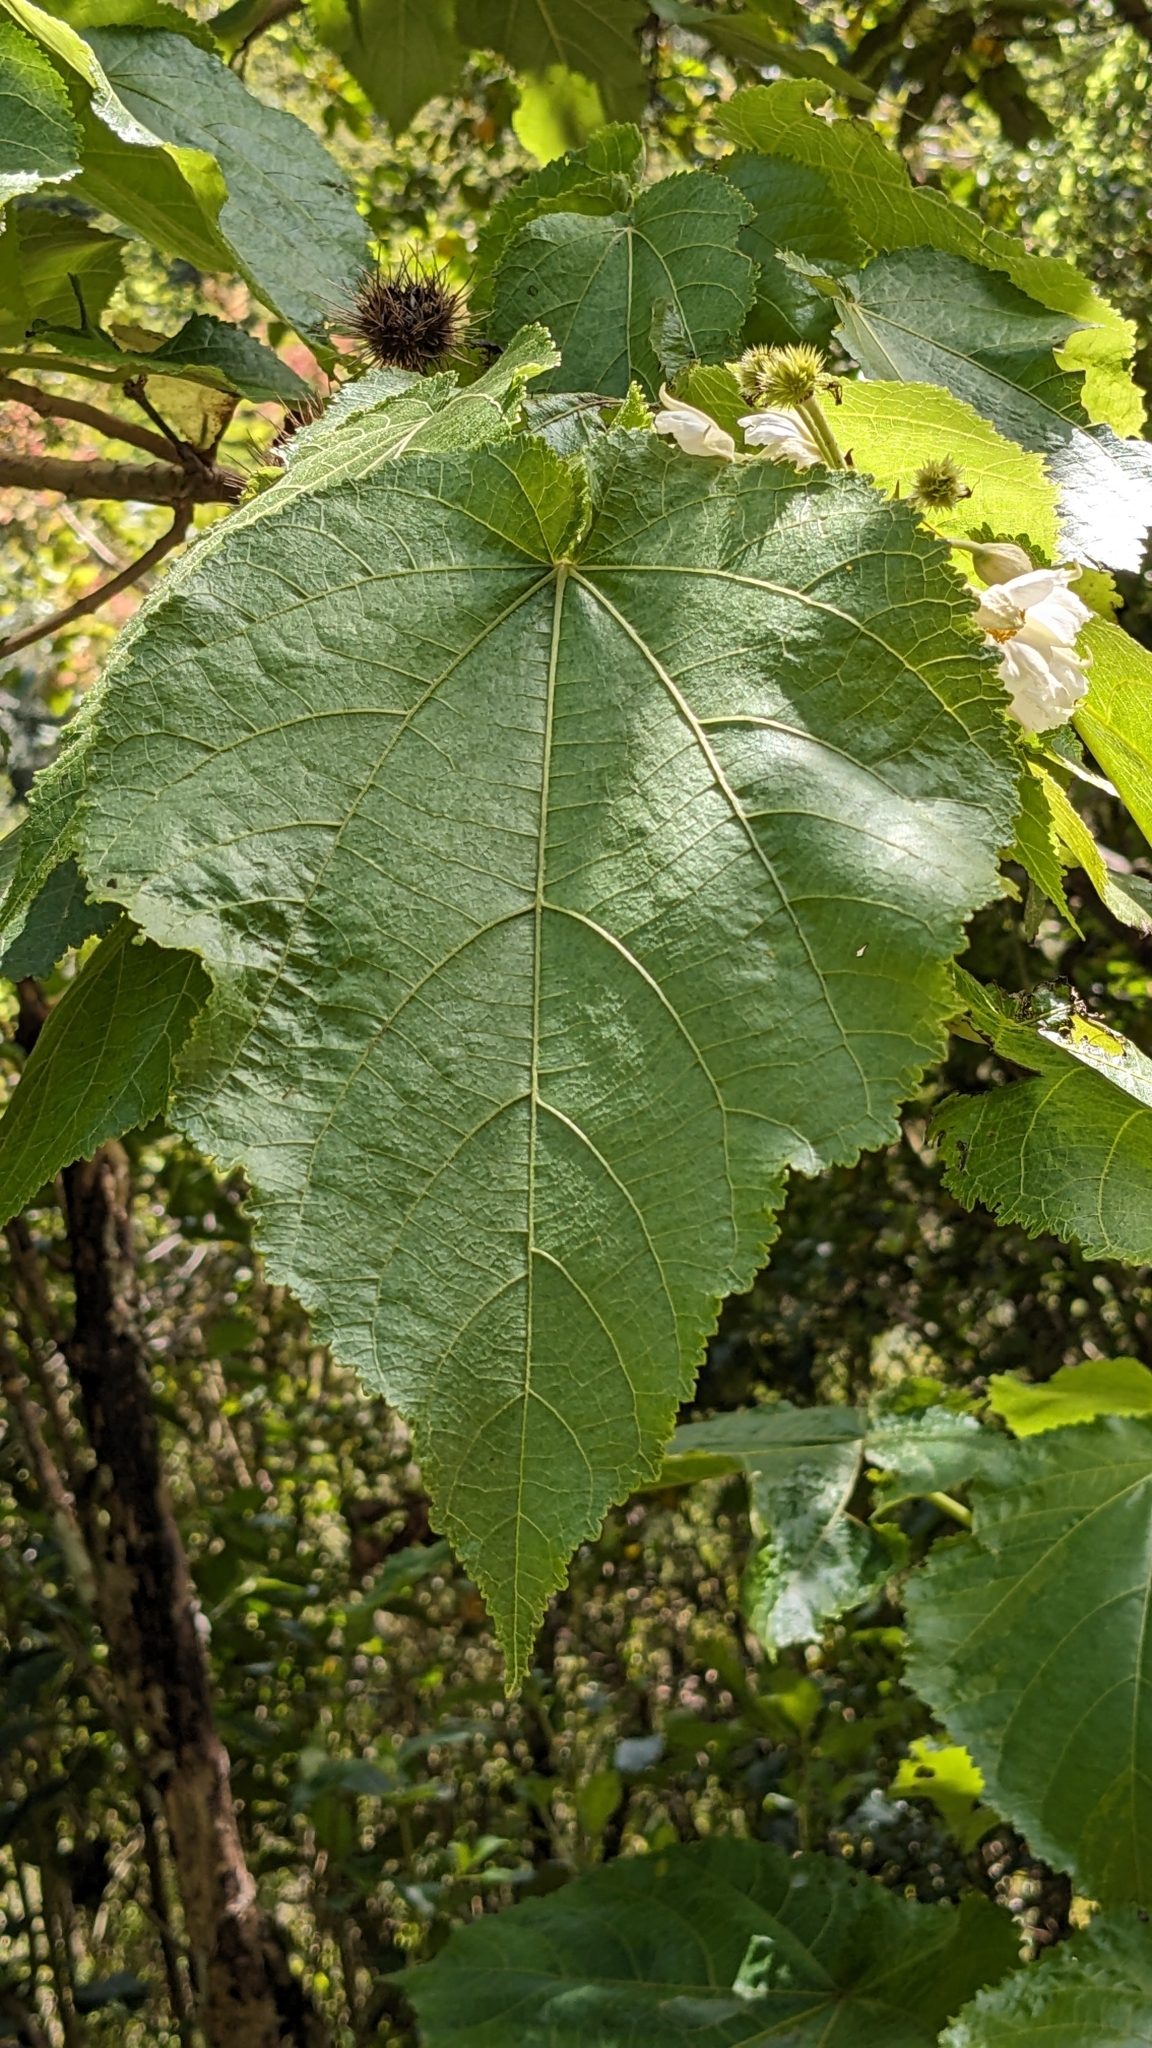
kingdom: Plantae
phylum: Tracheophyta
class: Magnoliopsida
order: Malvales
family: Malvaceae
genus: Entelea
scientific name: Entelea arborescens
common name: New zealand-mulberry
